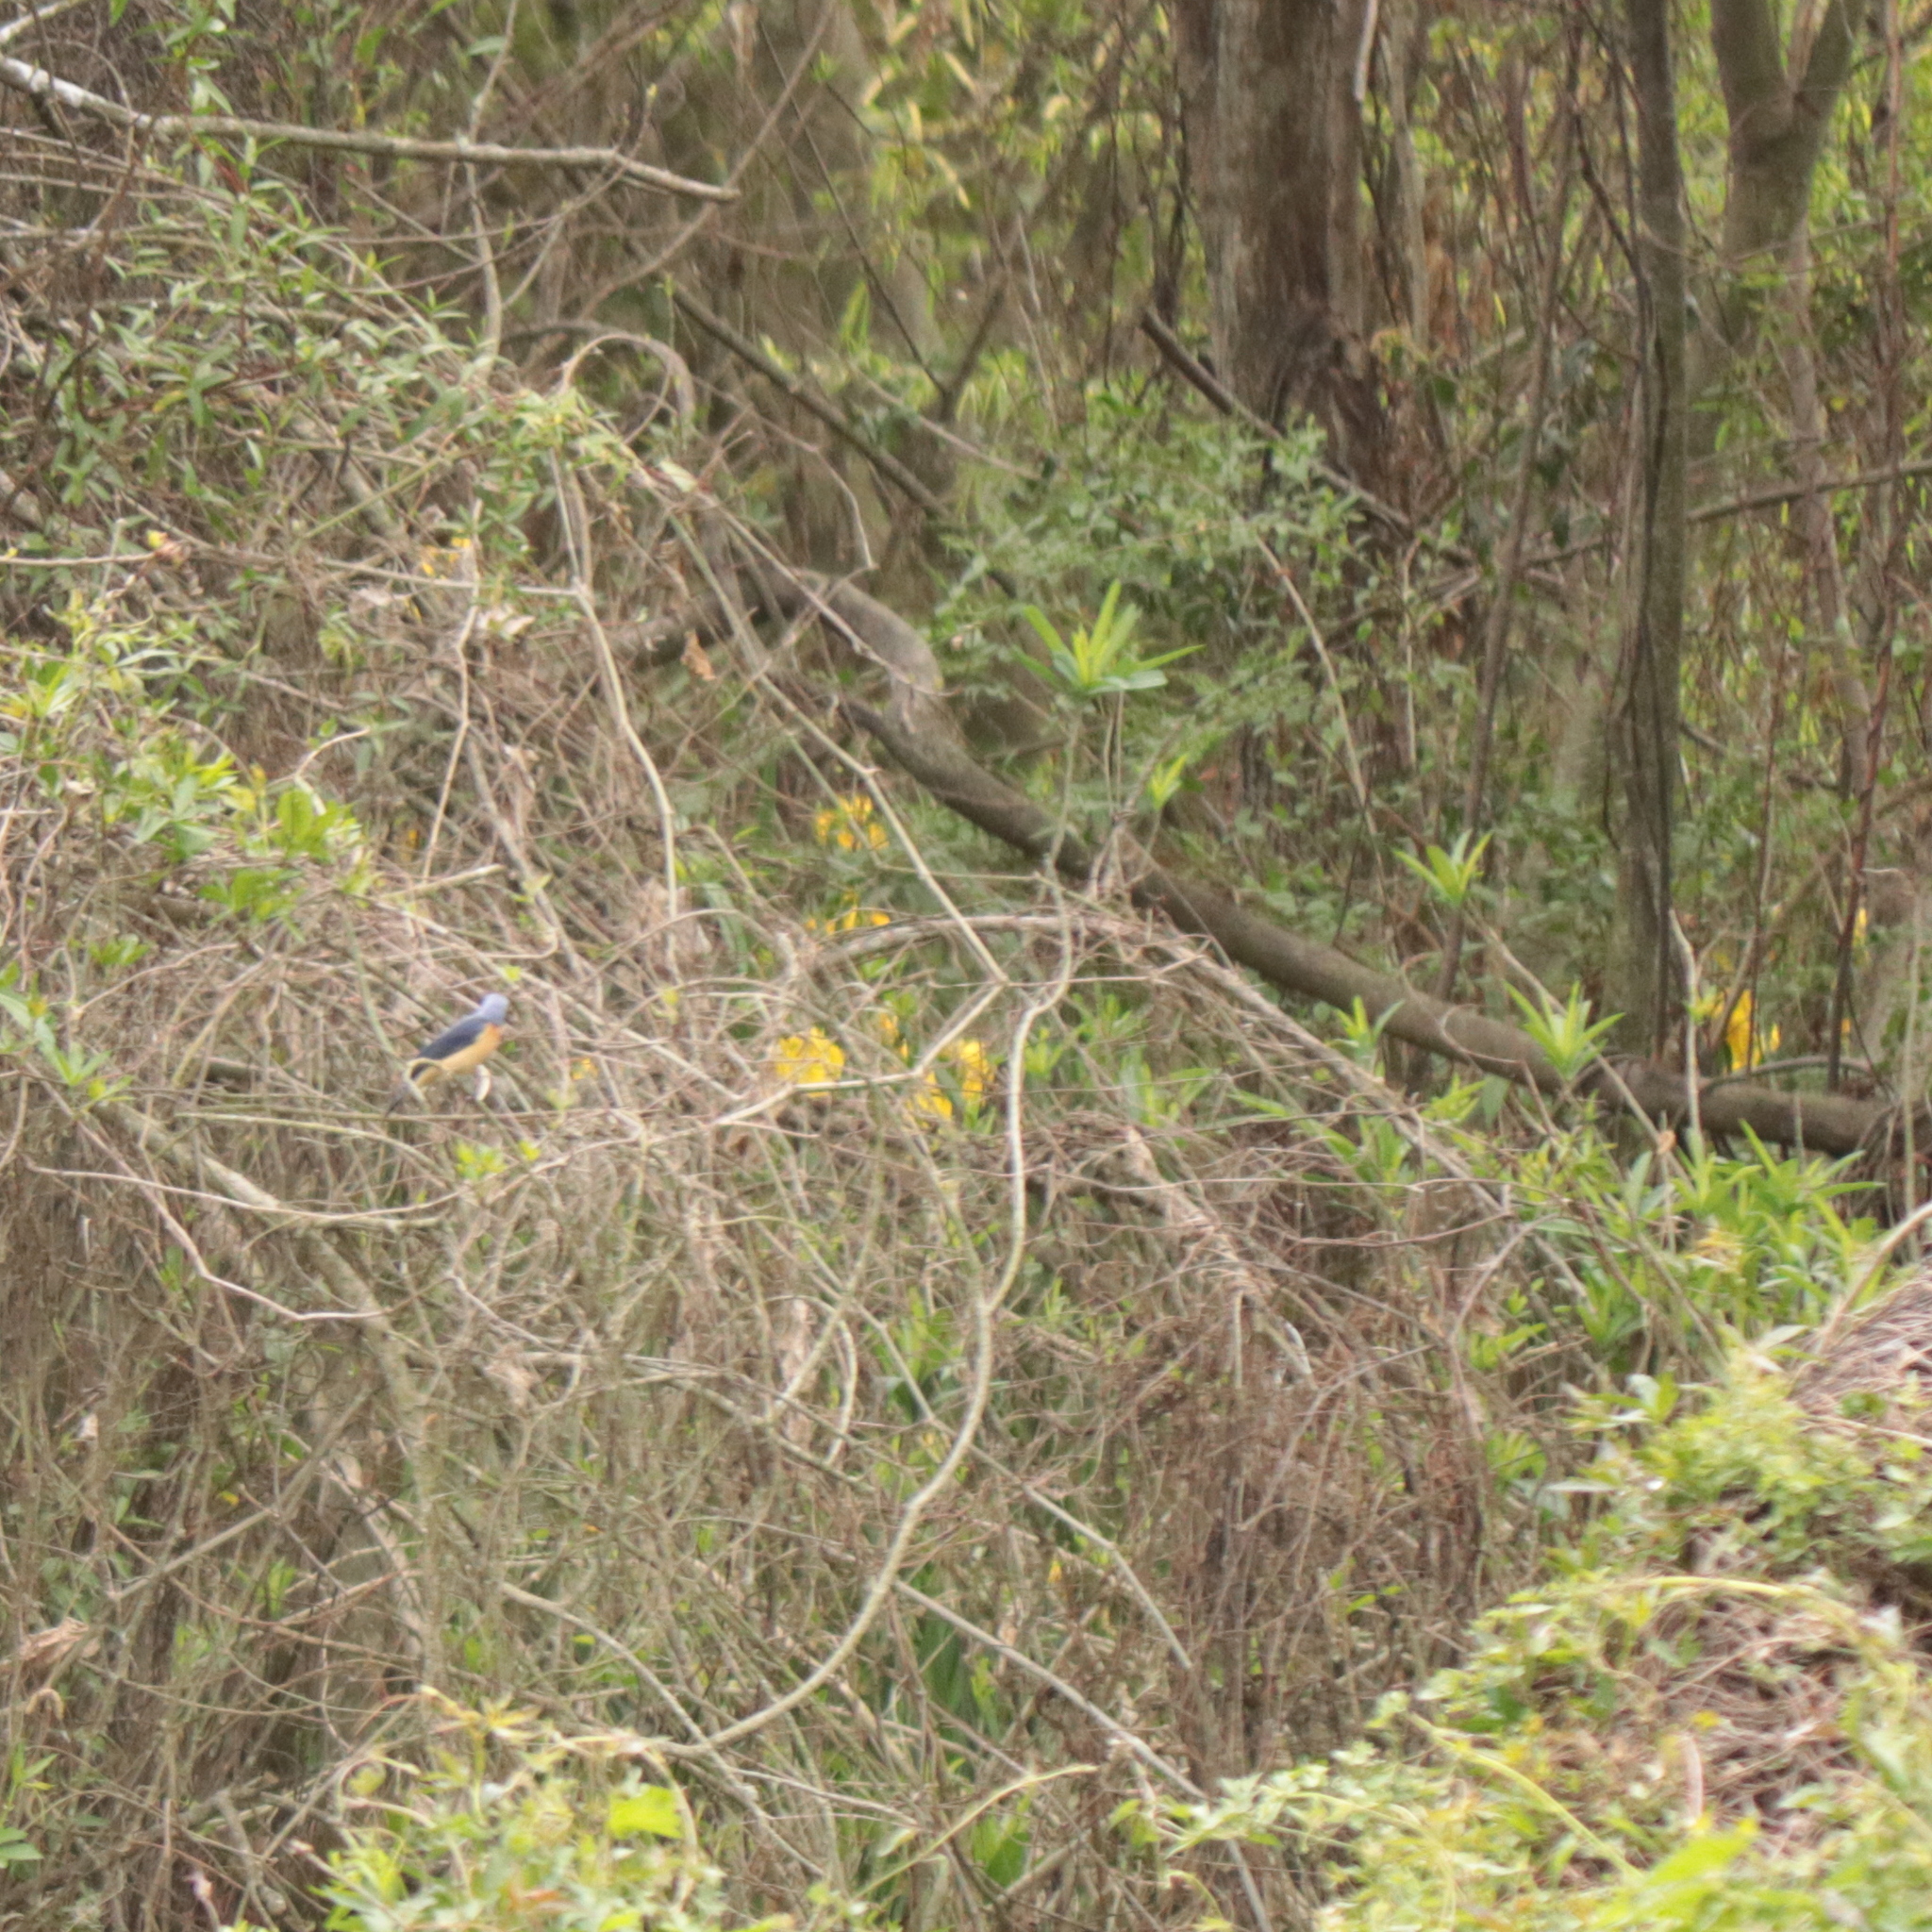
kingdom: Animalia
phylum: Chordata
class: Aves
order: Passeriformes
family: Thraupidae
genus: Pipraeidea
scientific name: Pipraeidea melanonota
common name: Fawn-breasted tanager
